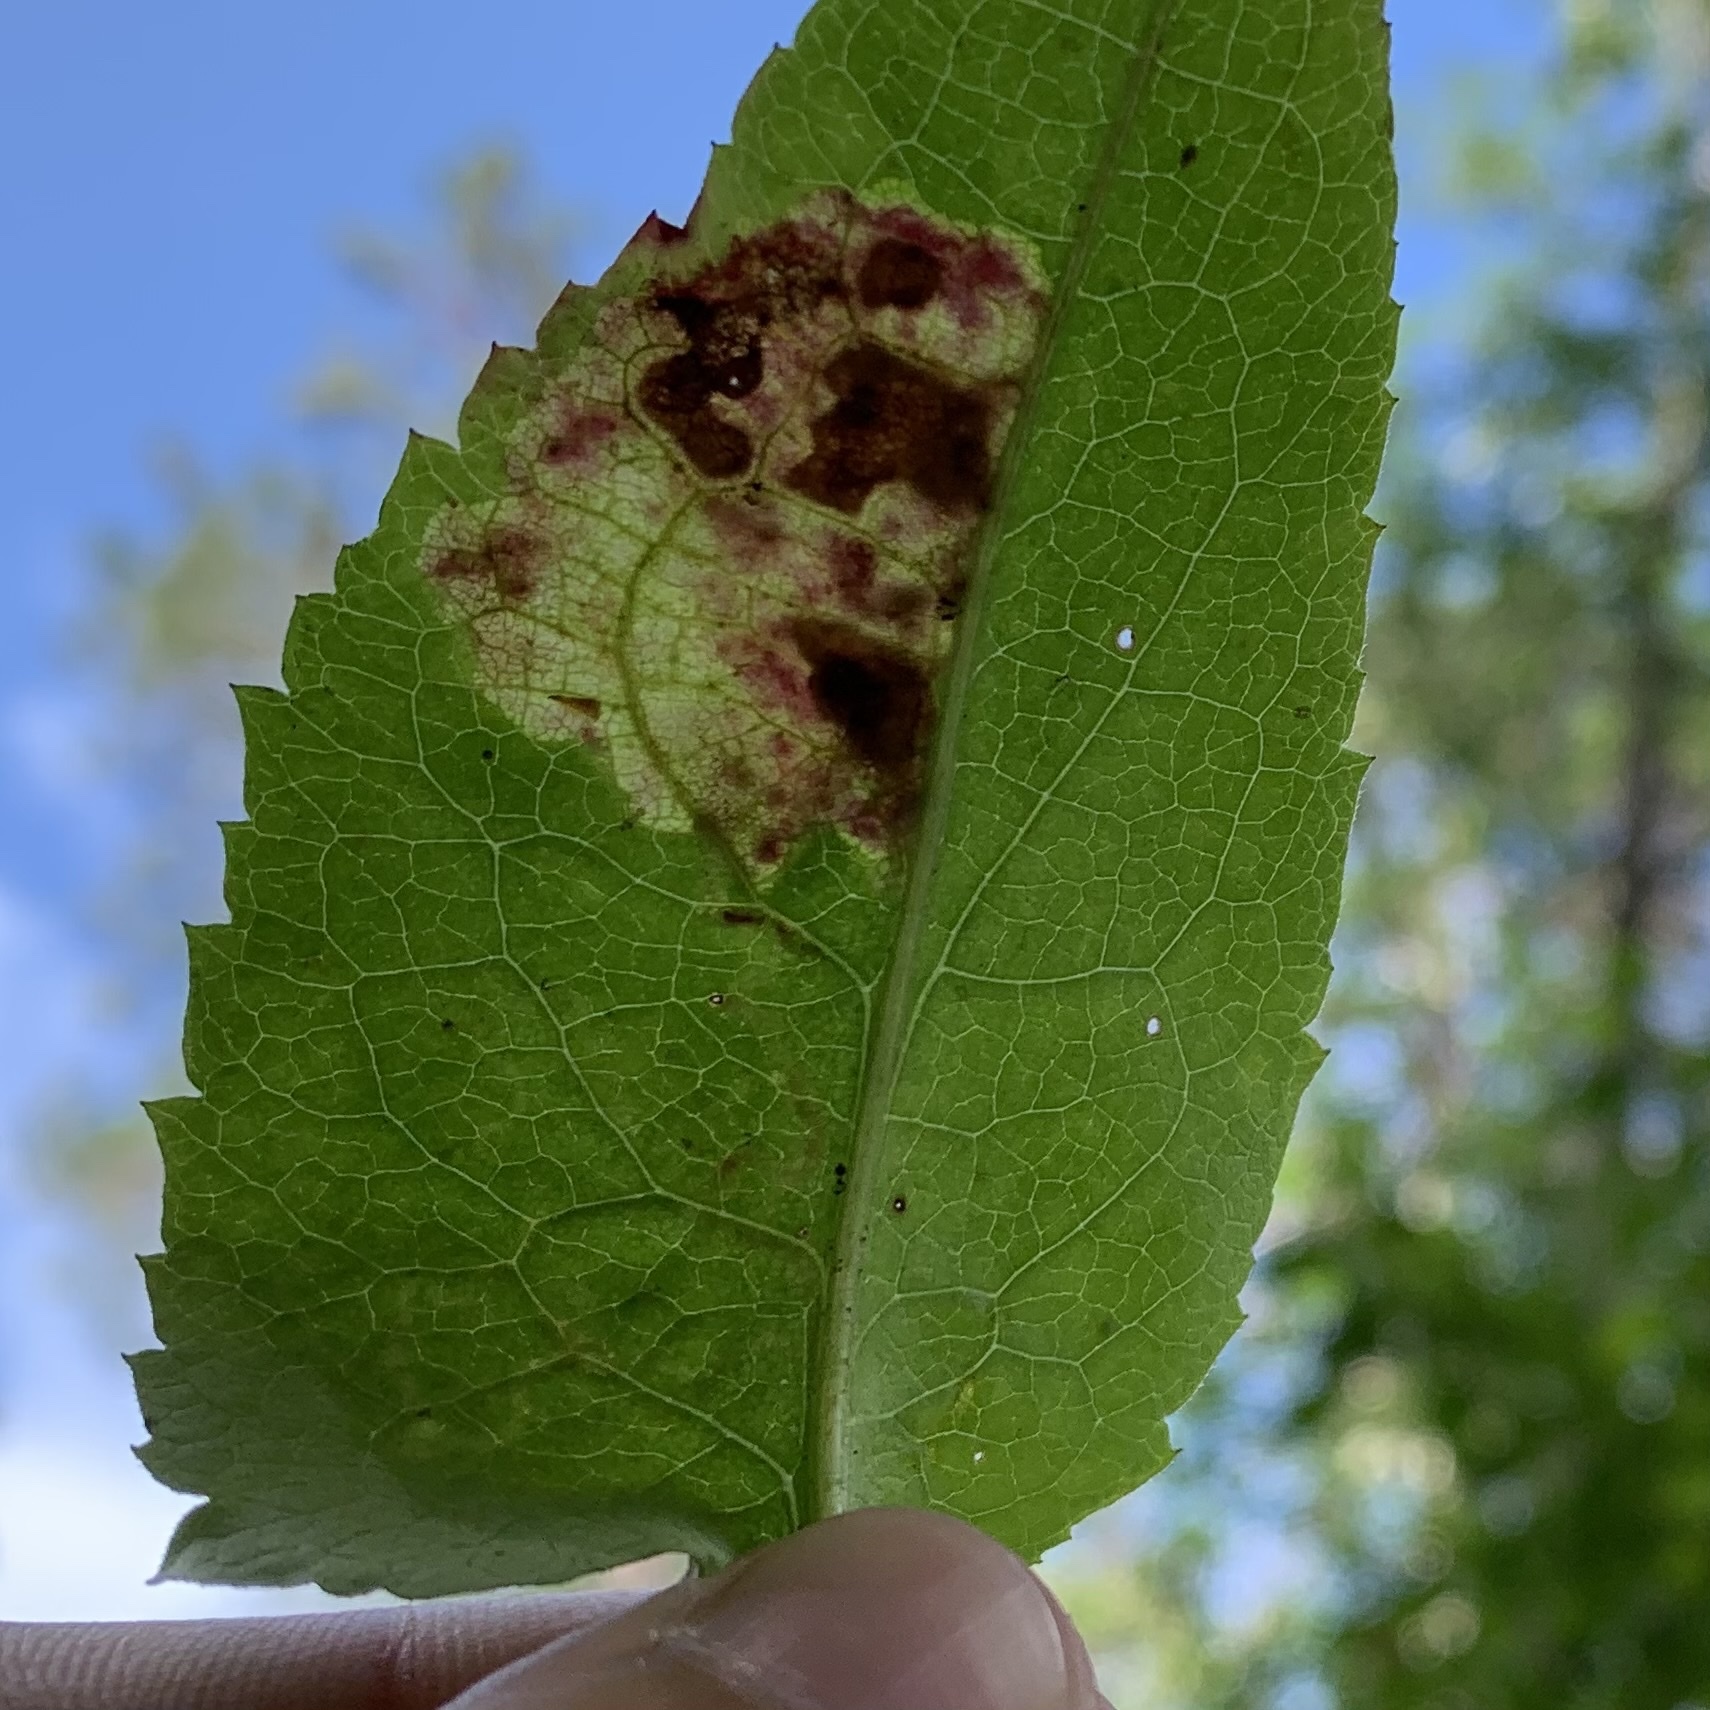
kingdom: Animalia
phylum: Arthropoda
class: Insecta
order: Lepidoptera
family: Gracillariidae
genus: Acrocercops
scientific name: Acrocercops astericola
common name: Aster tentiform blotchminer
